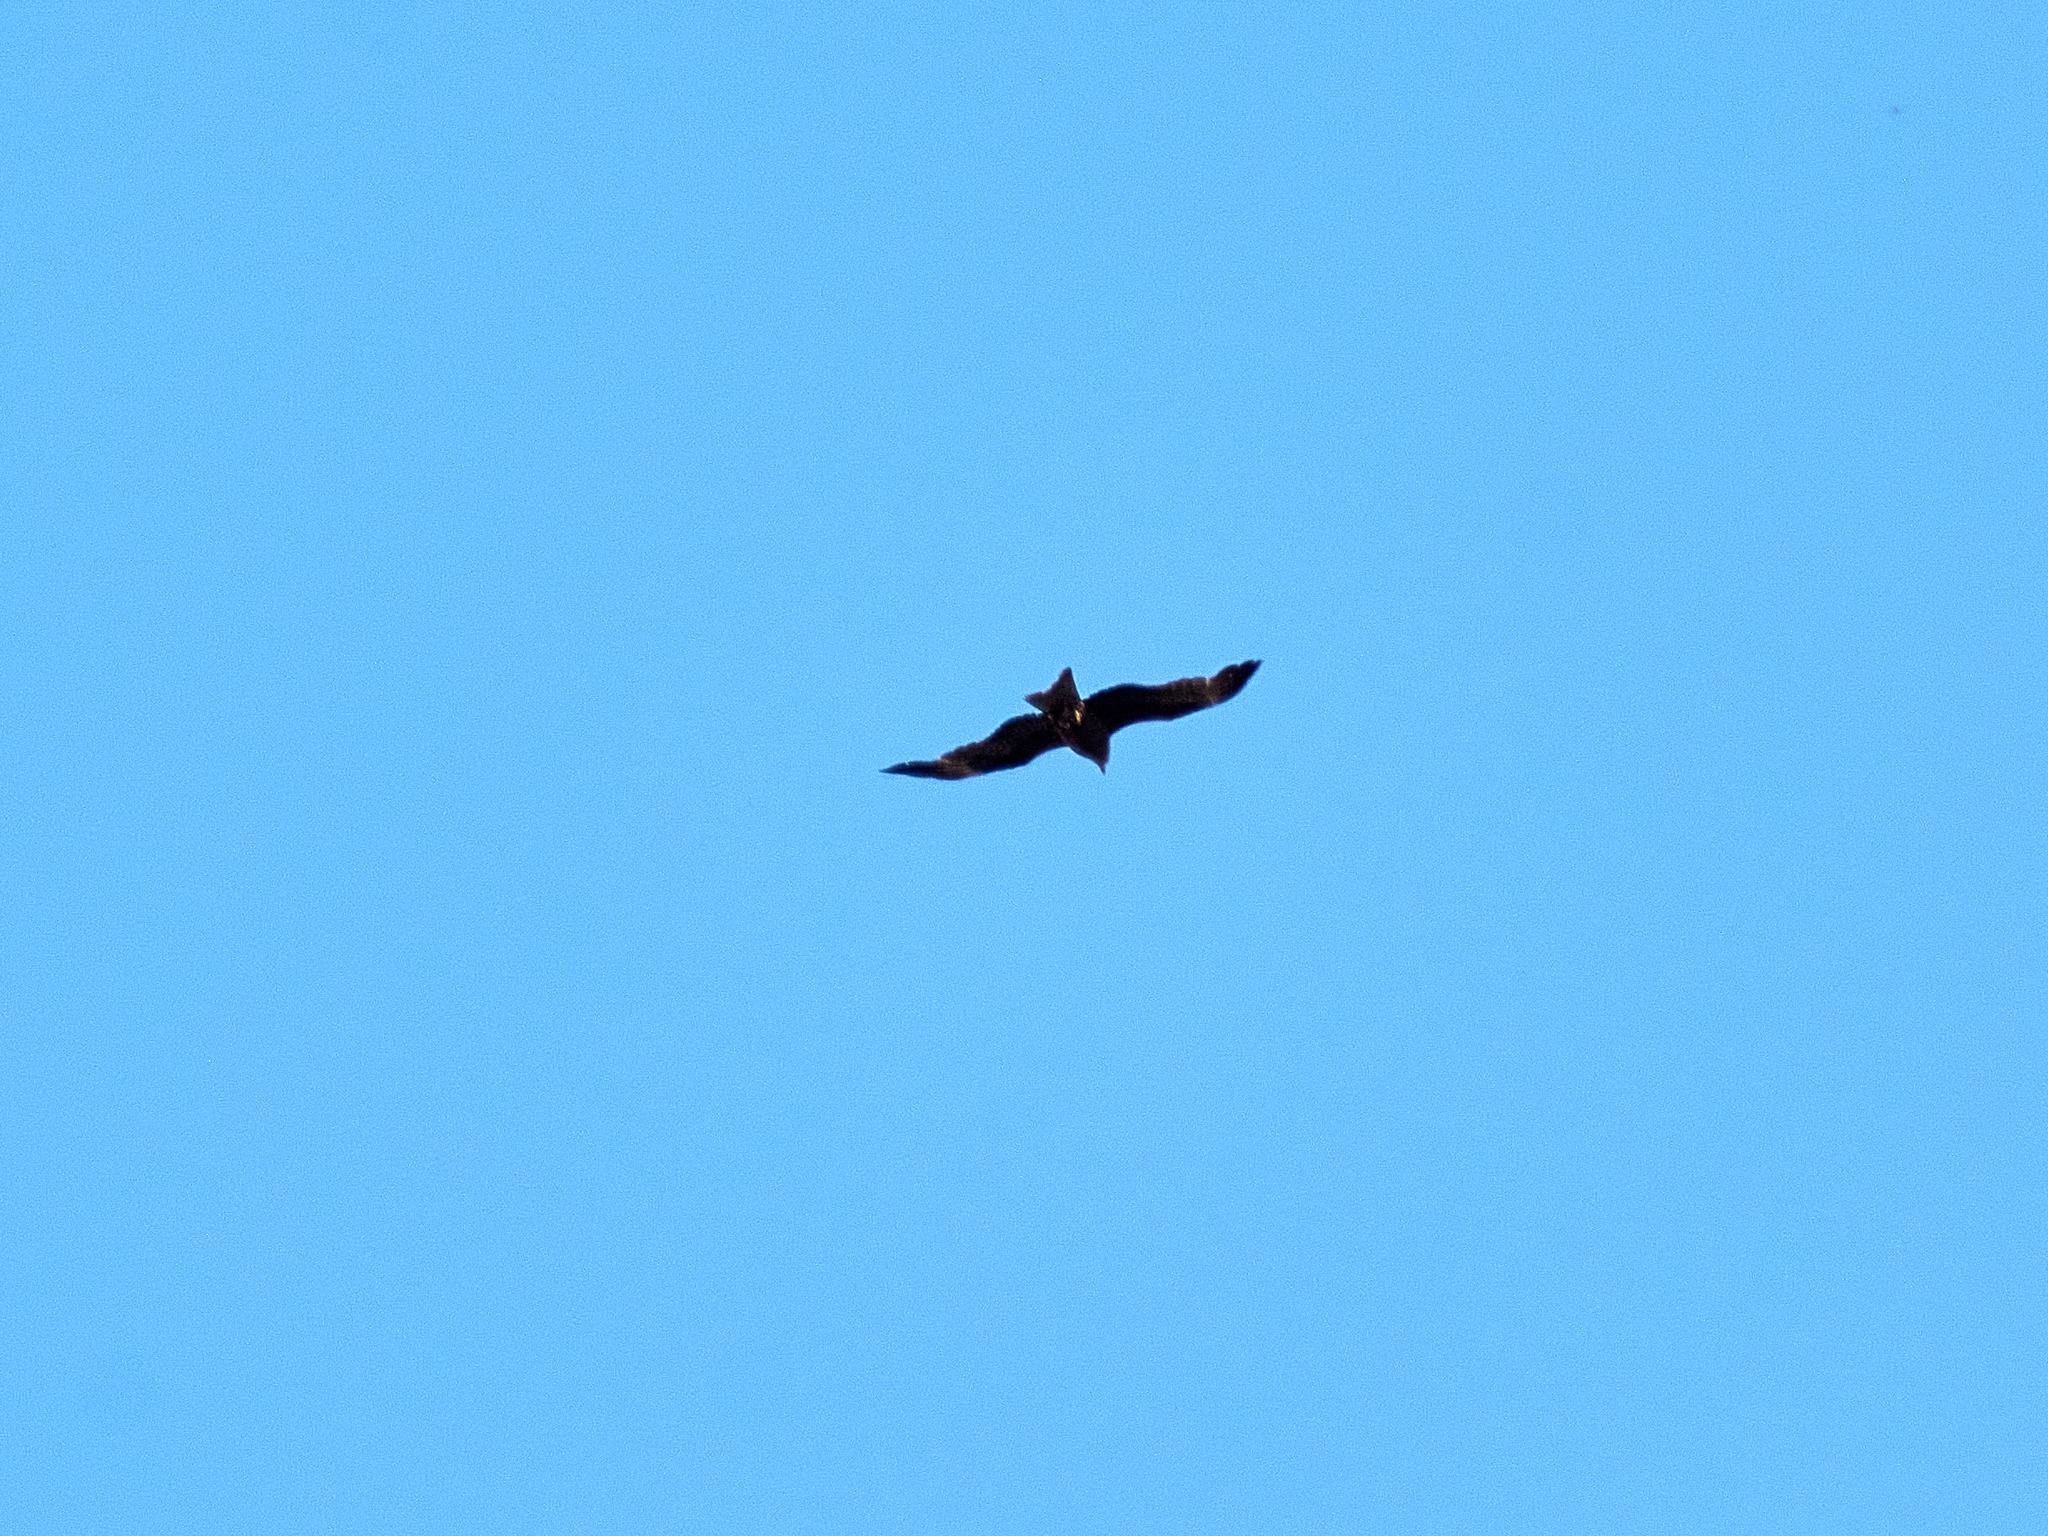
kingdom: Animalia
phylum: Chordata
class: Aves
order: Accipitriformes
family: Accipitridae
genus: Milvus
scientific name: Milvus migrans
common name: Black kite
